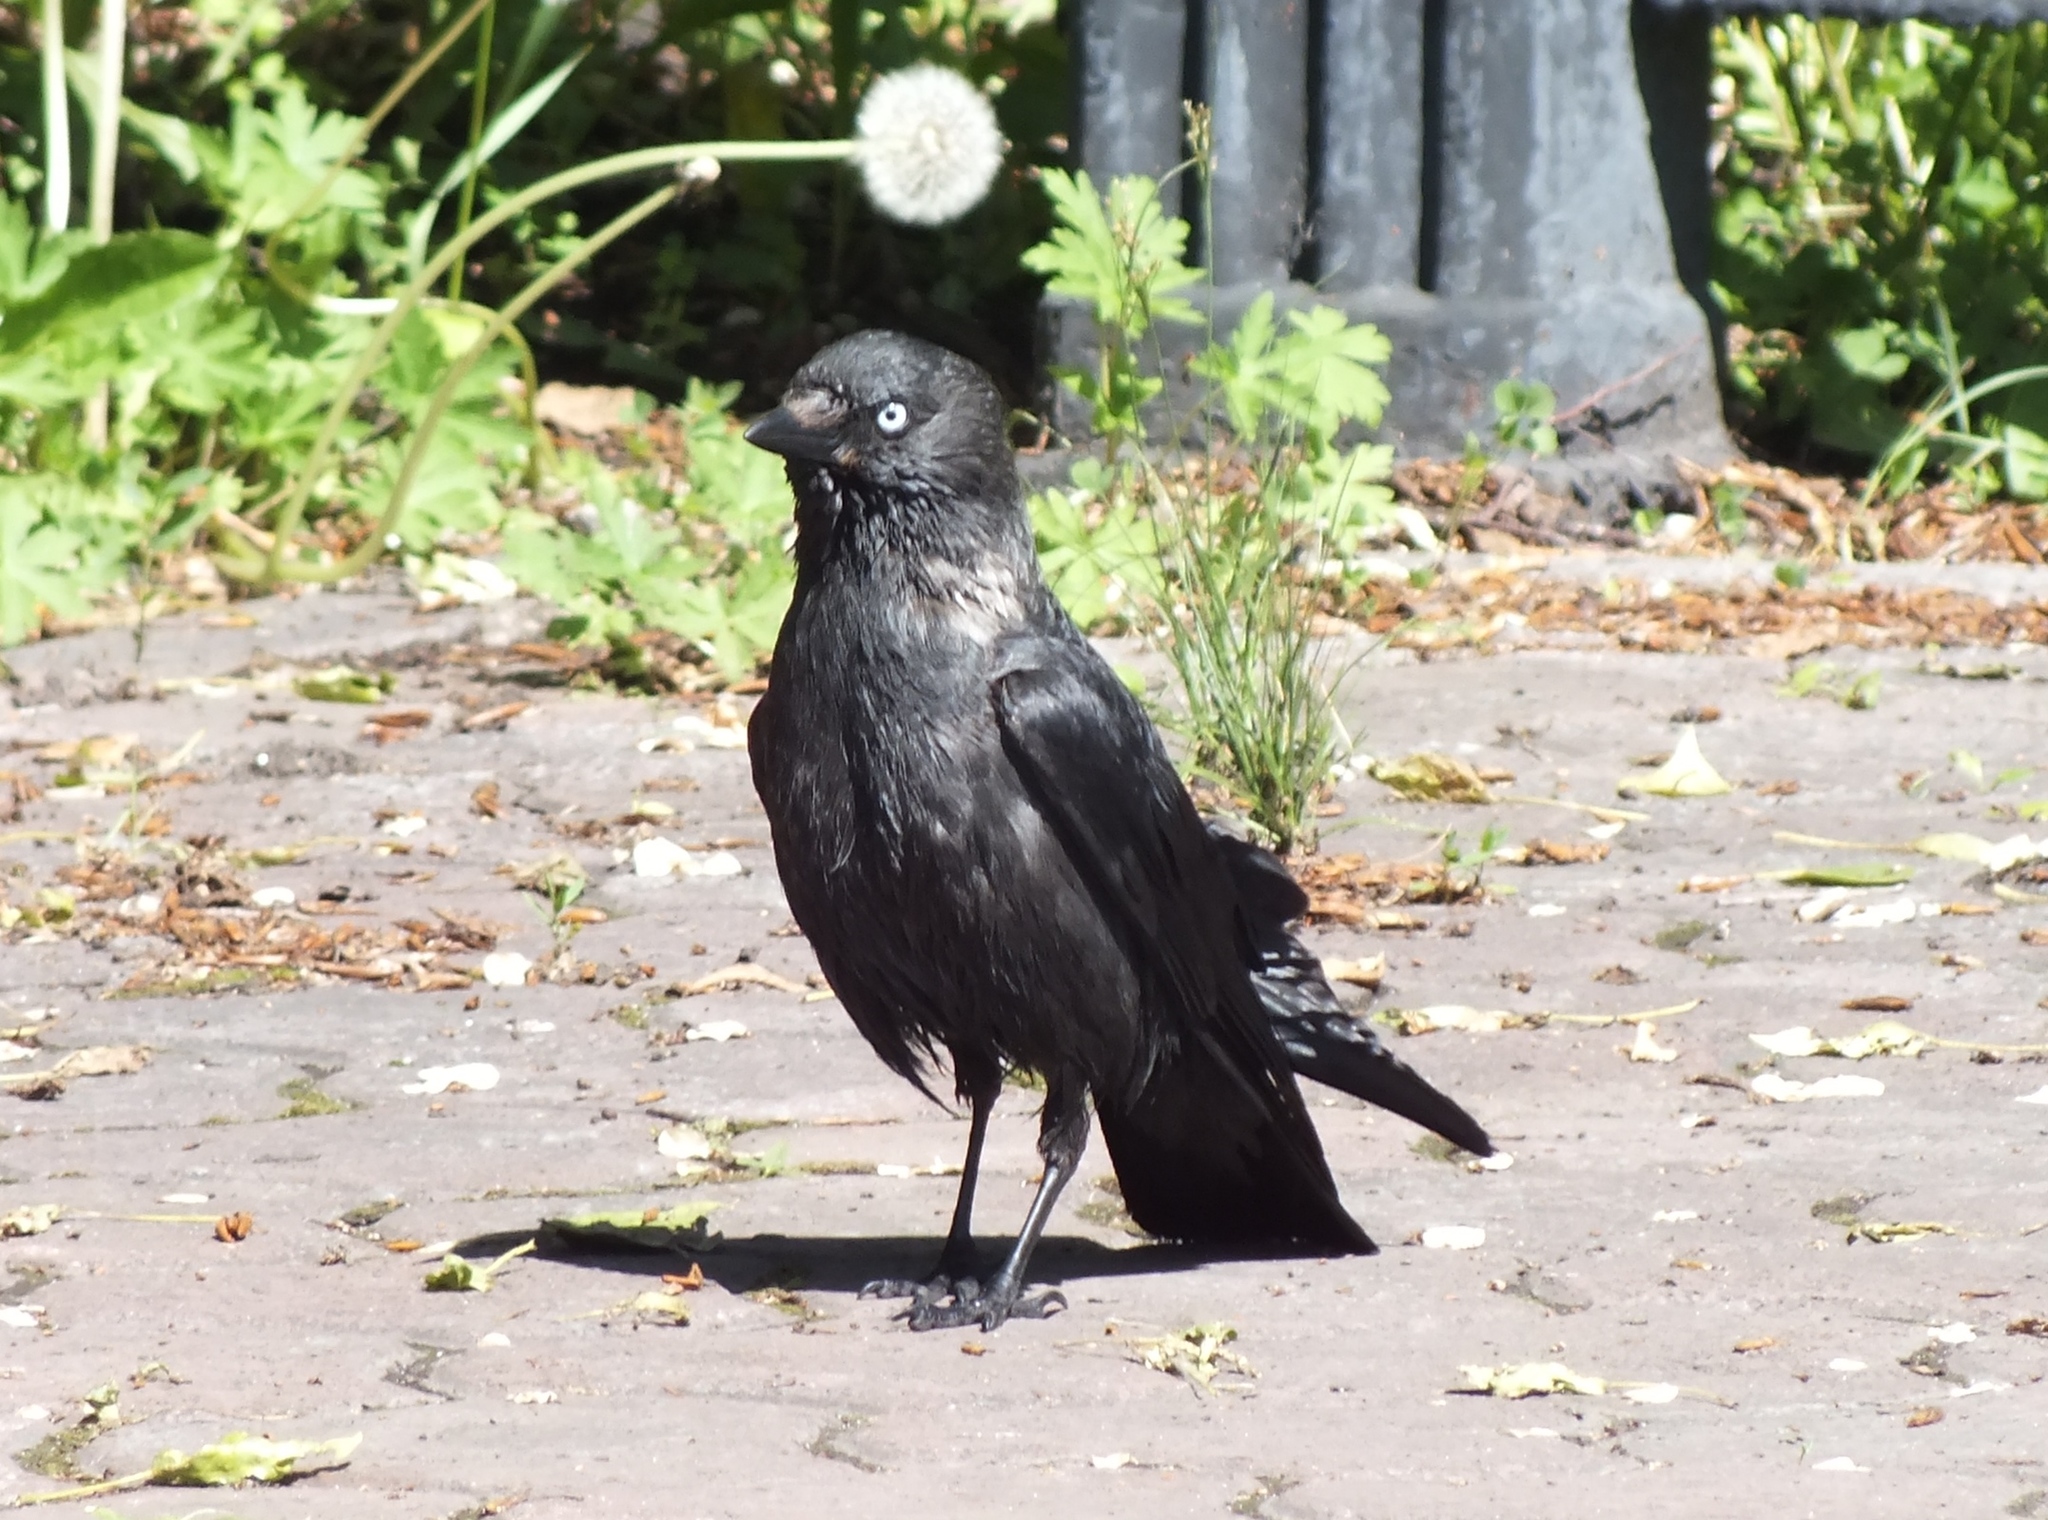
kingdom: Animalia
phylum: Chordata
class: Aves
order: Passeriformes
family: Corvidae
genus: Coloeus
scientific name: Coloeus monedula
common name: Western jackdaw
